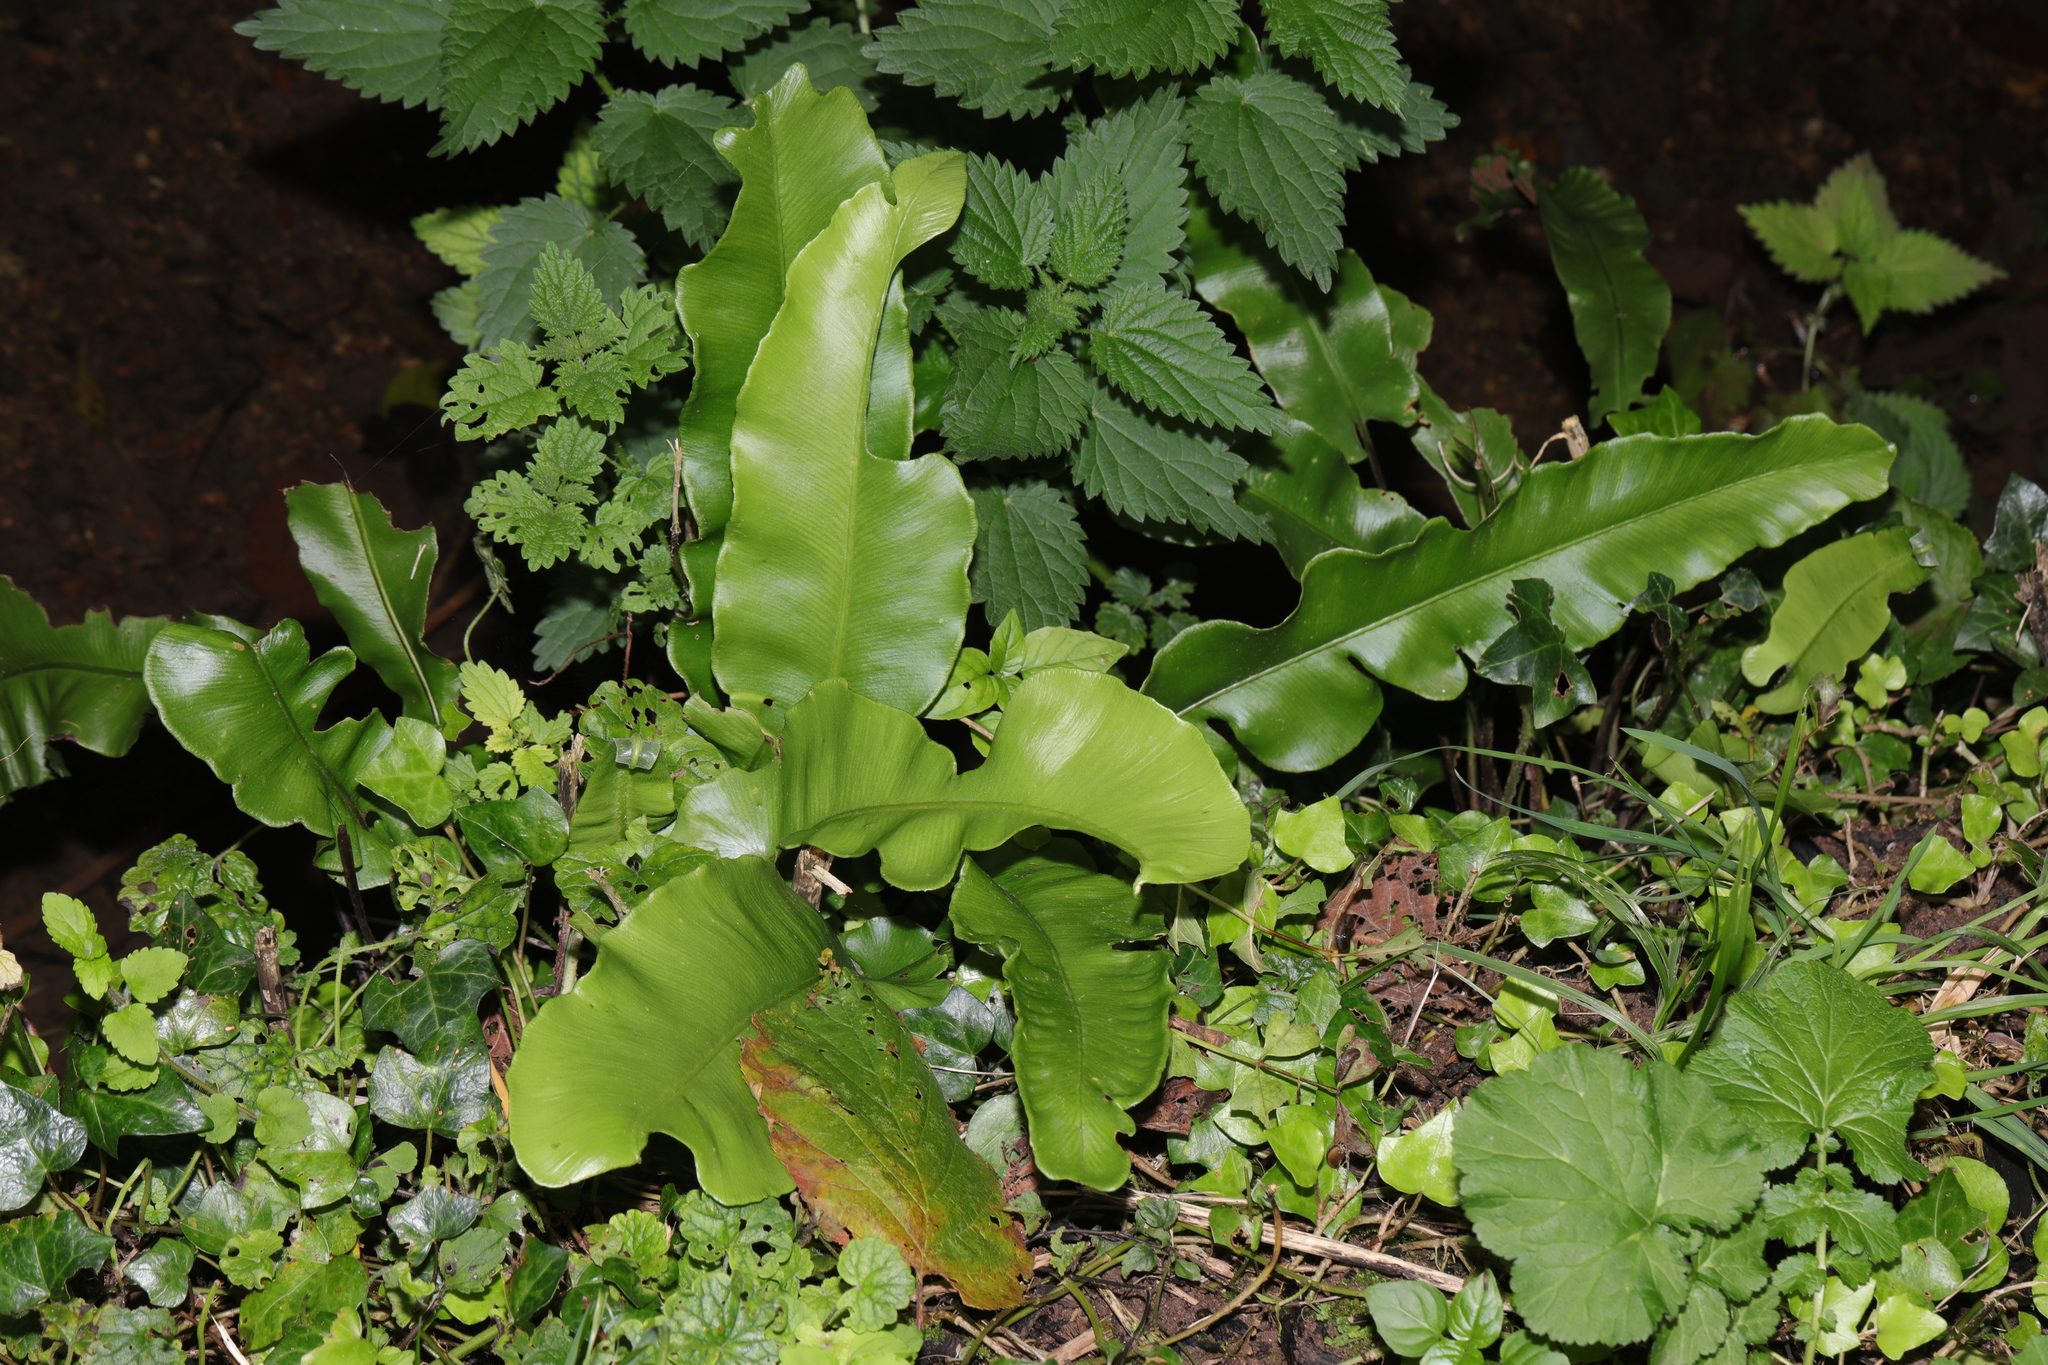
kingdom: Plantae
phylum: Tracheophyta
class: Polypodiopsida
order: Polypodiales
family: Aspleniaceae
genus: Asplenium
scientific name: Asplenium scolopendrium
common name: Hart's-tongue fern
